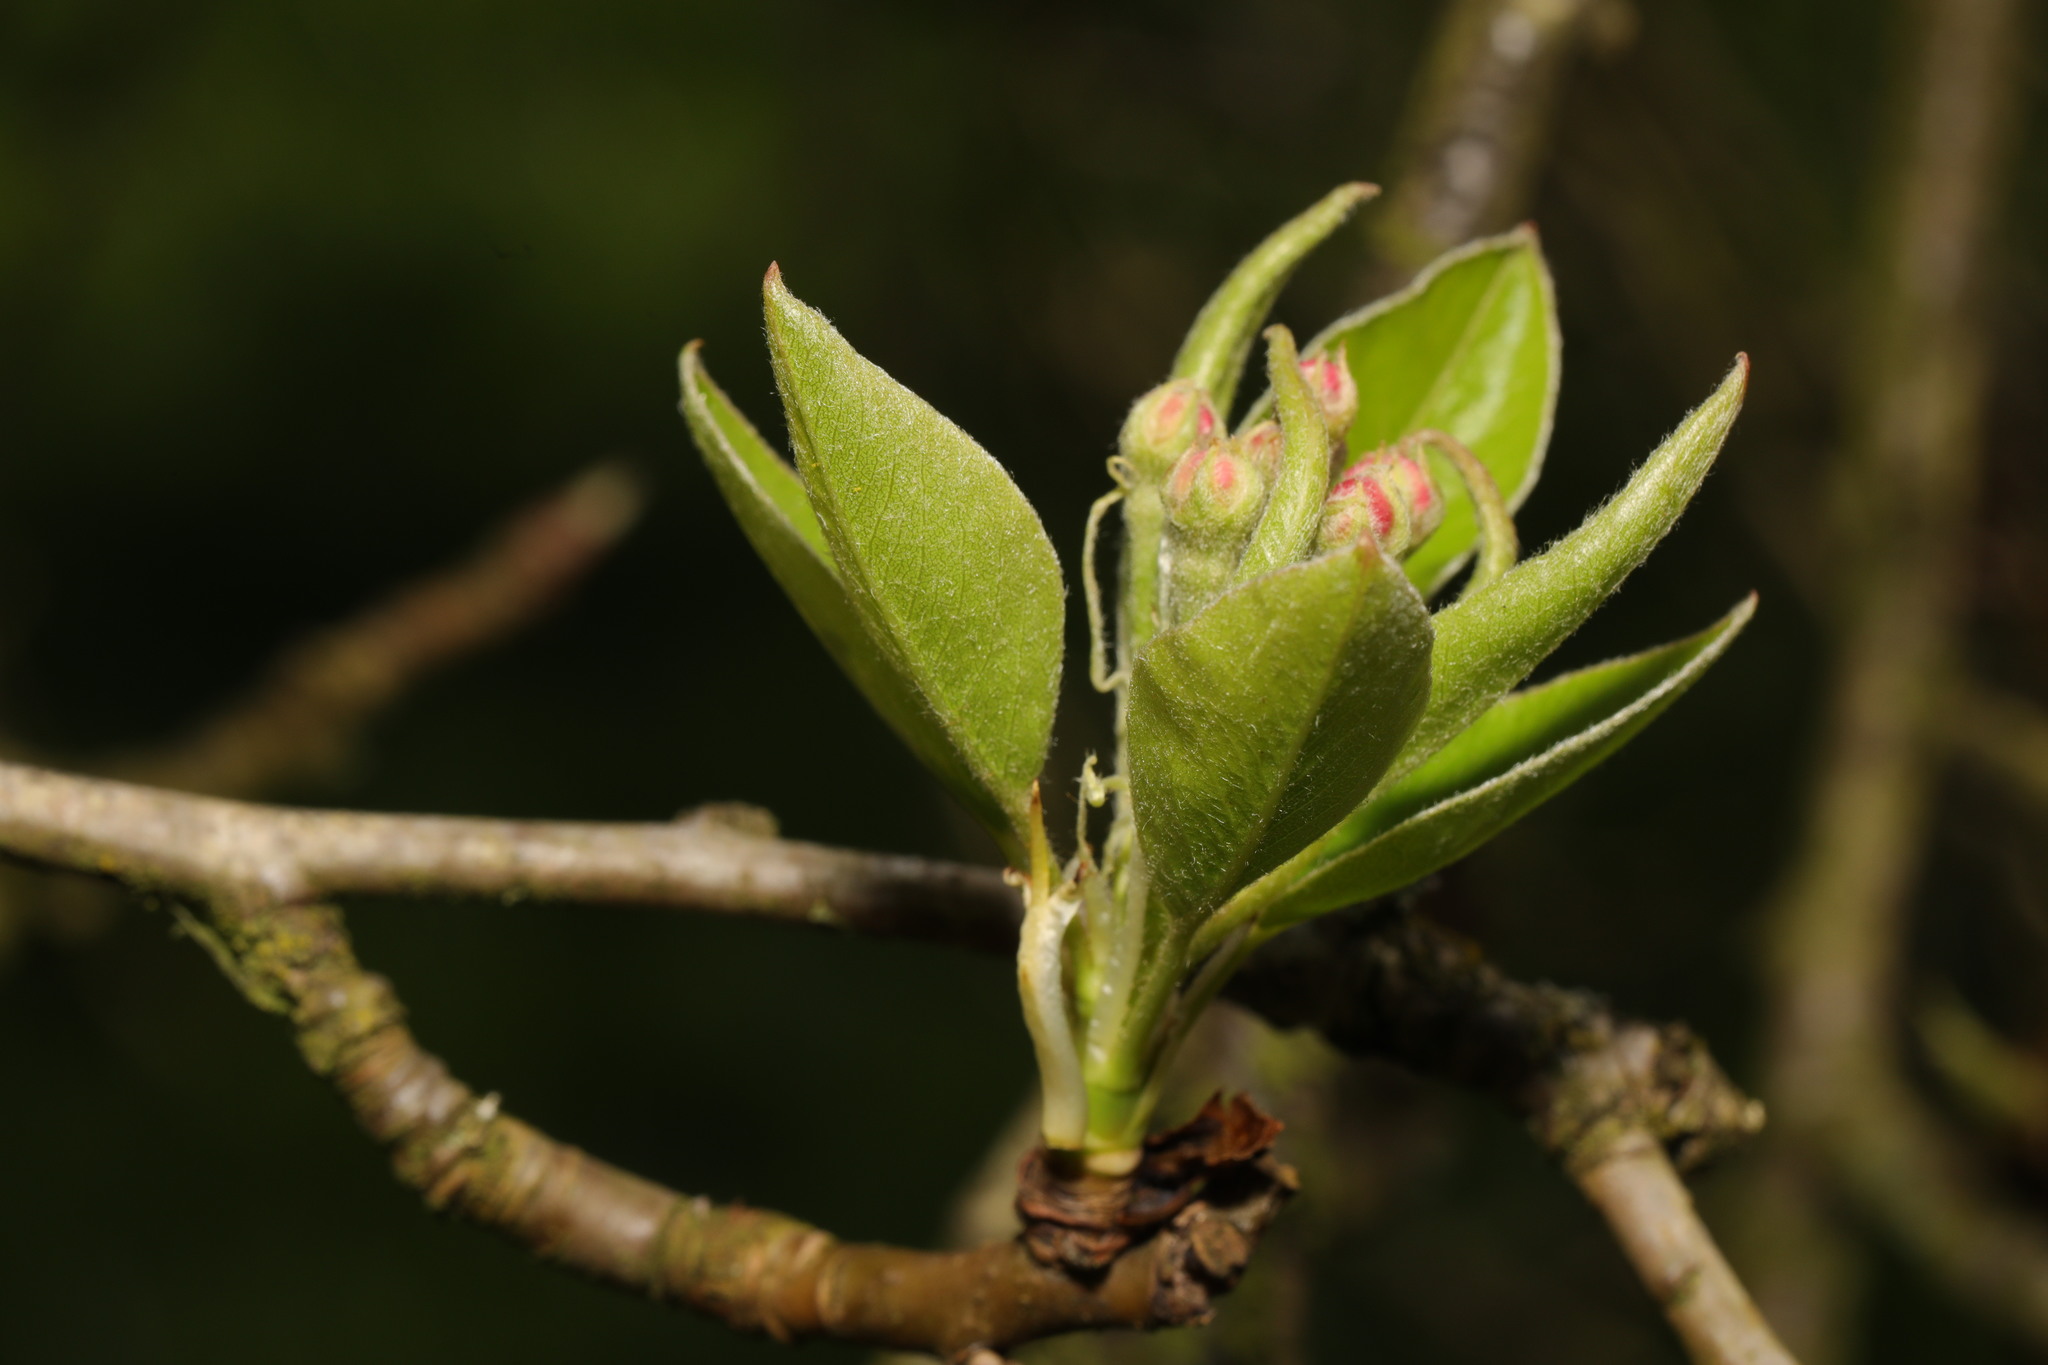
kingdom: Plantae
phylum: Tracheophyta
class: Magnoliopsida
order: Rosales
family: Rosaceae
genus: Malus
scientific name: Malus domestica
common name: Apple
